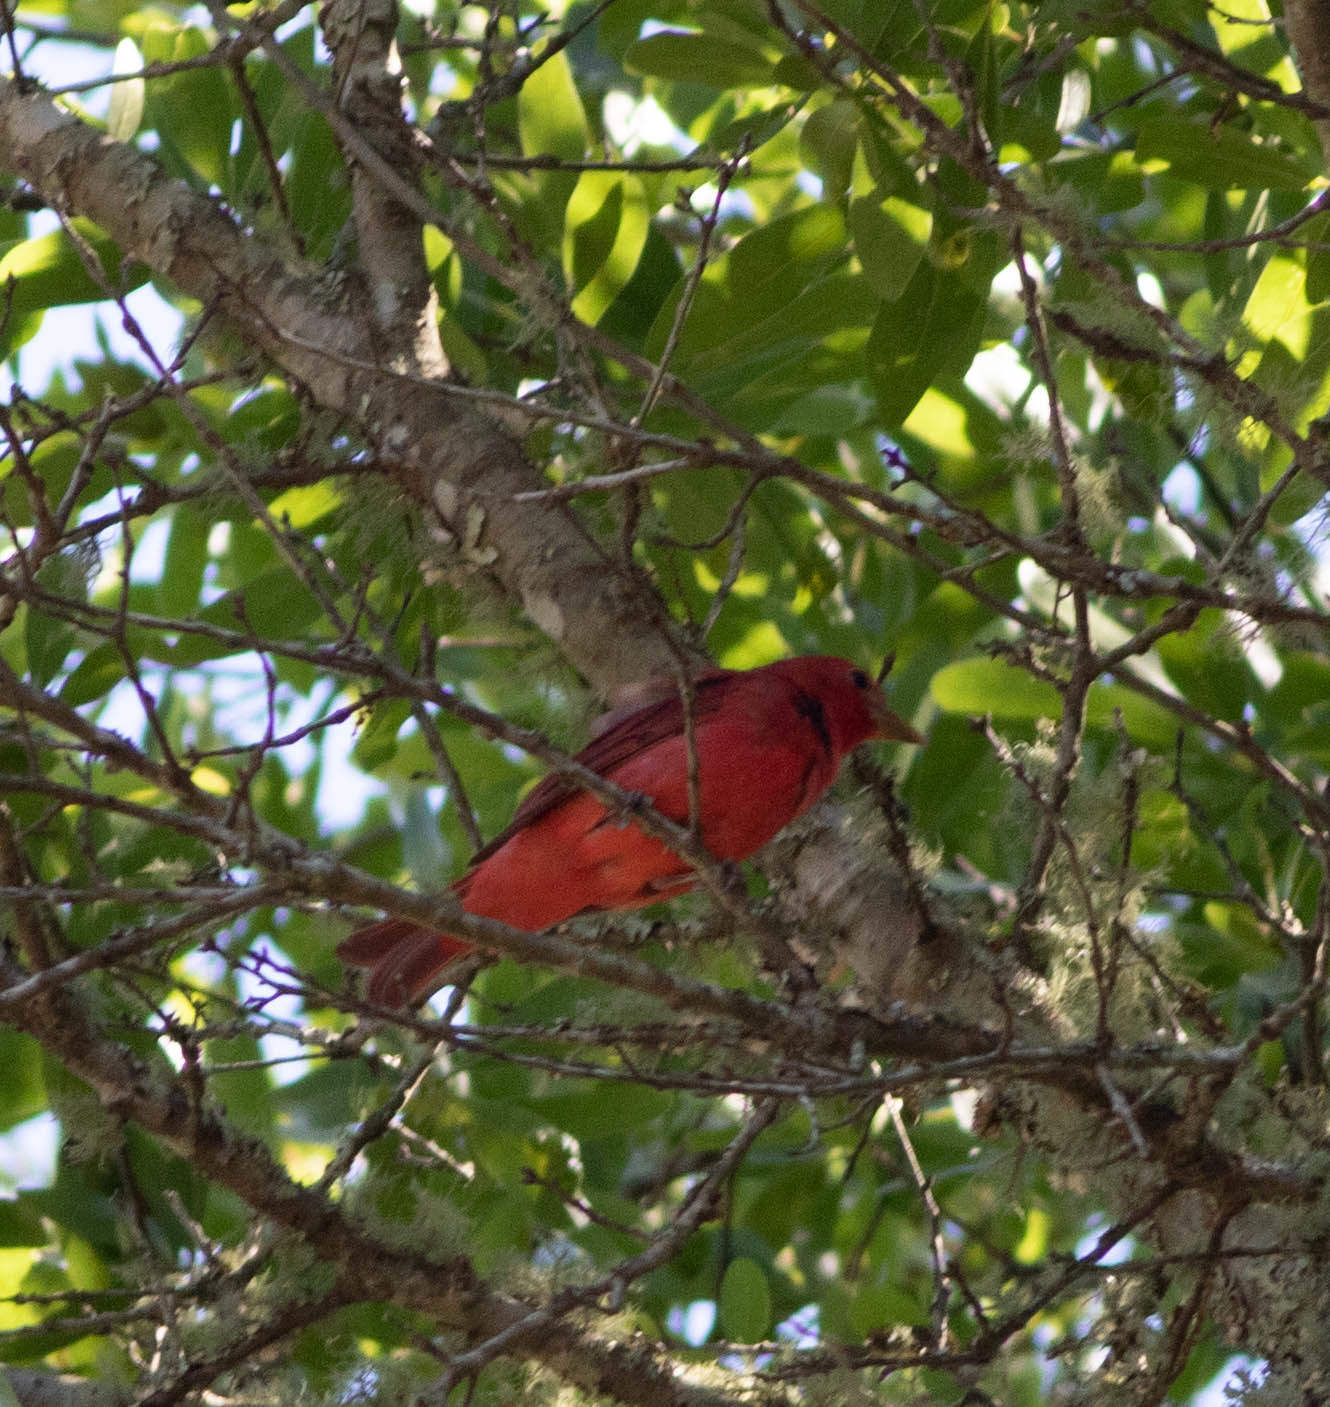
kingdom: Animalia
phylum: Chordata
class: Aves
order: Passeriformes
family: Cardinalidae
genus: Piranga
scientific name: Piranga rubra
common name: Summer tanager
